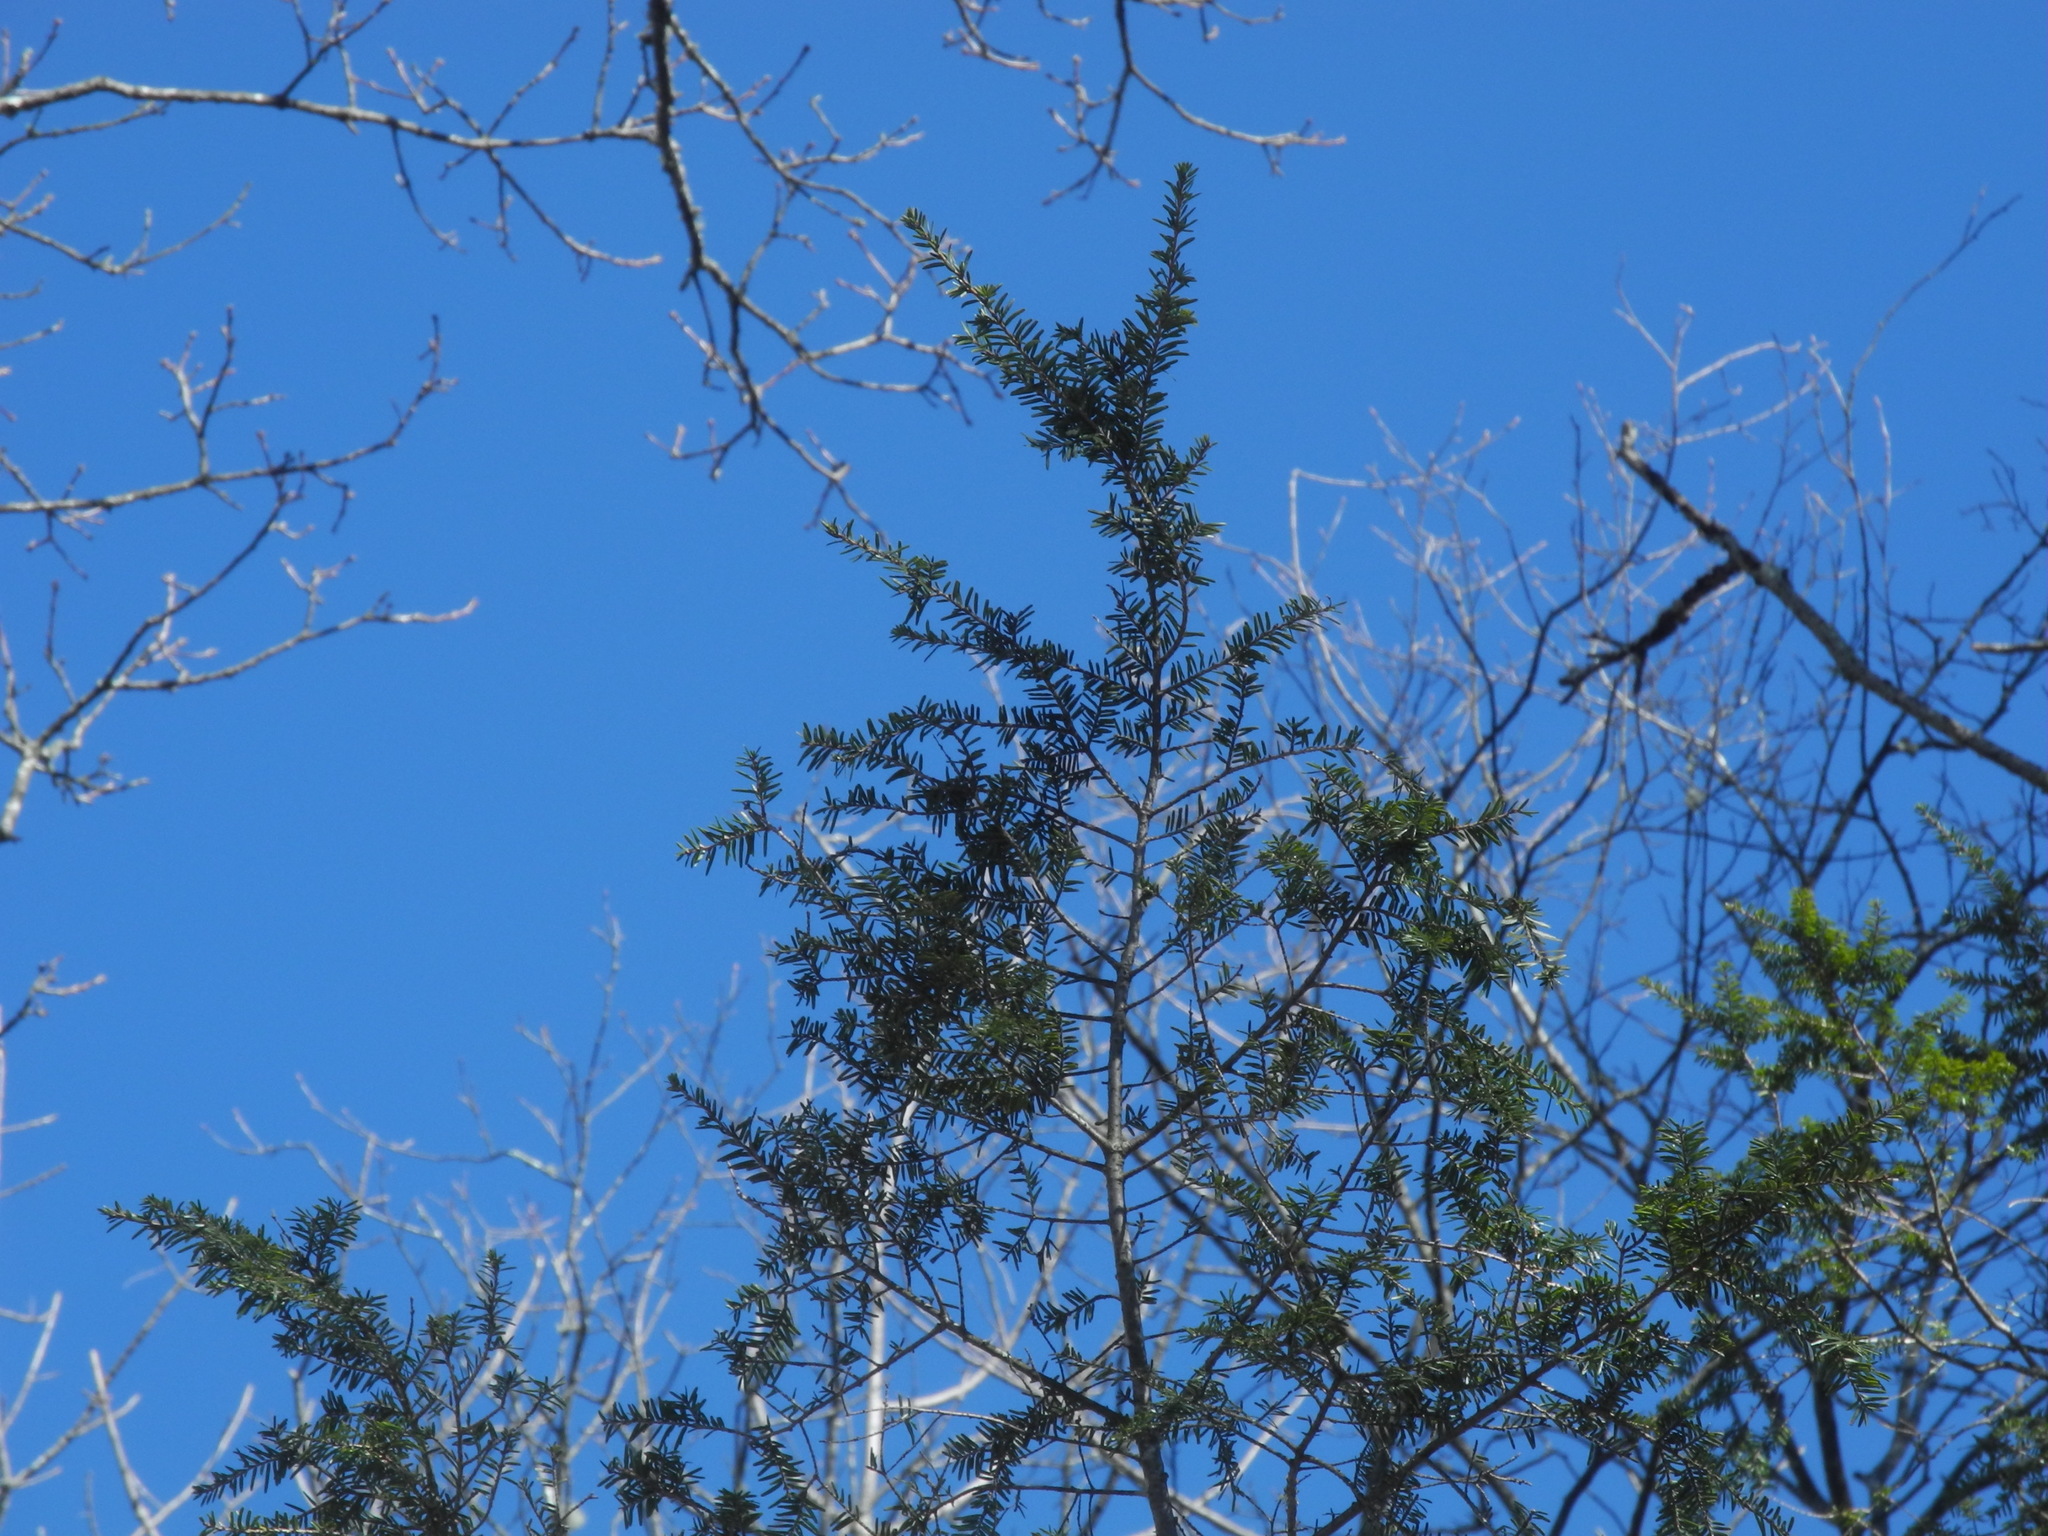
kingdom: Plantae
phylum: Tracheophyta
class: Pinopsida
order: Pinales
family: Pinaceae
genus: Tsuga
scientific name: Tsuga canadensis
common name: Eastern hemlock
